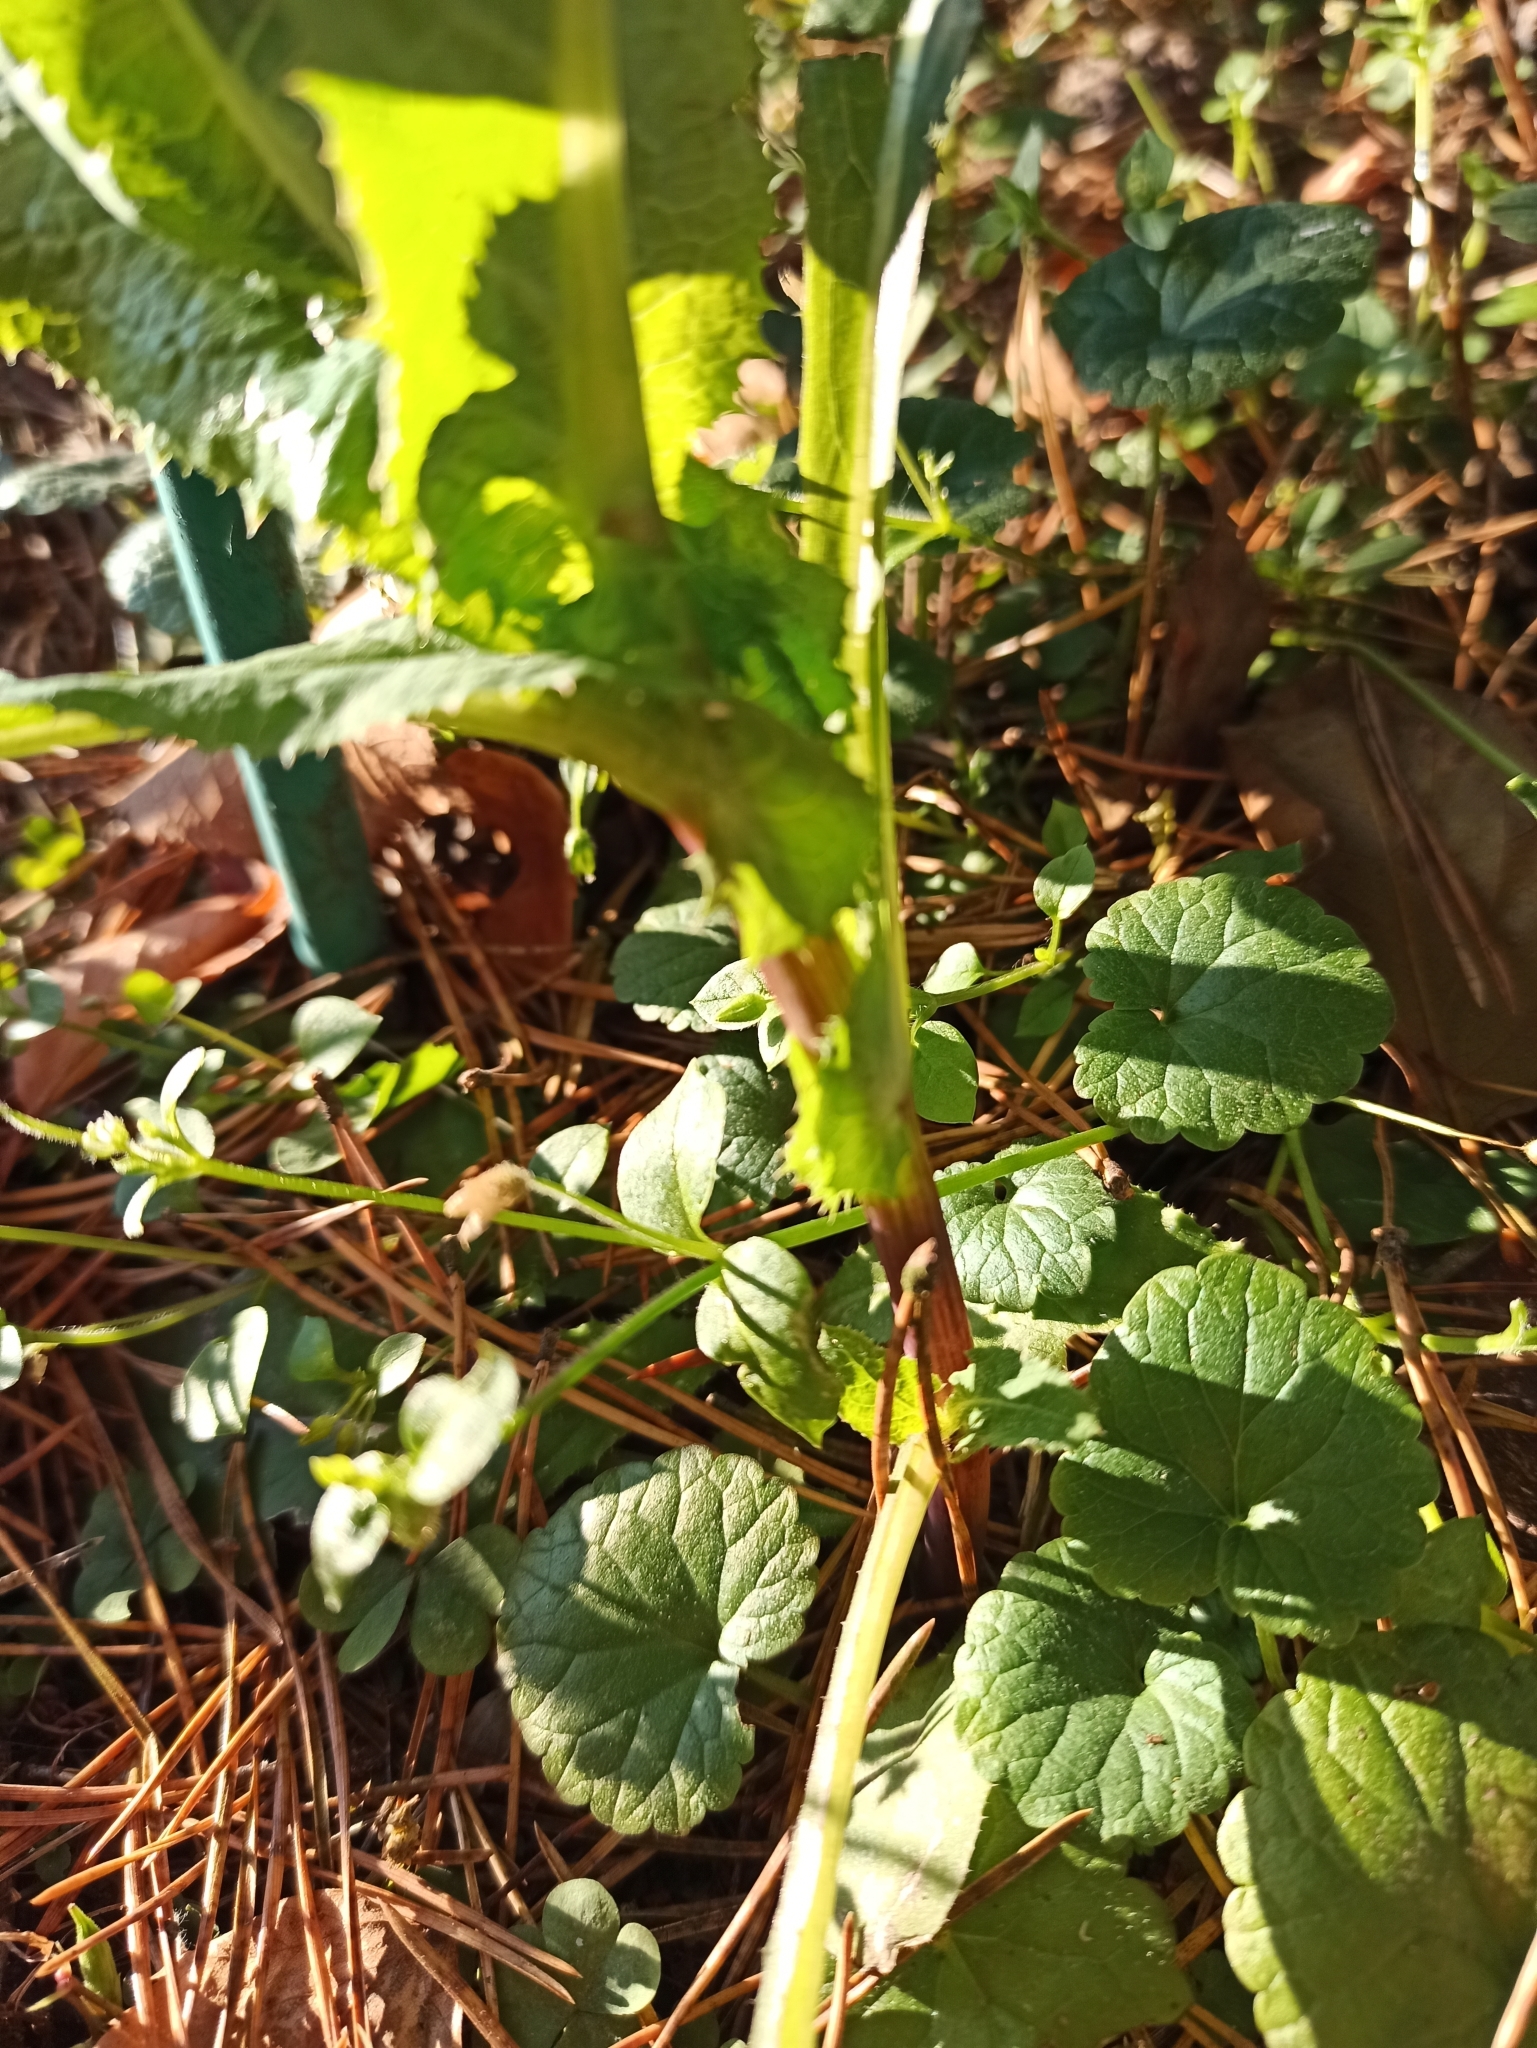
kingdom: Plantae
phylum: Tracheophyta
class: Magnoliopsida
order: Asterales
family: Asteraceae
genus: Sonchus
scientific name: Sonchus asper
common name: Prickly sow-thistle
